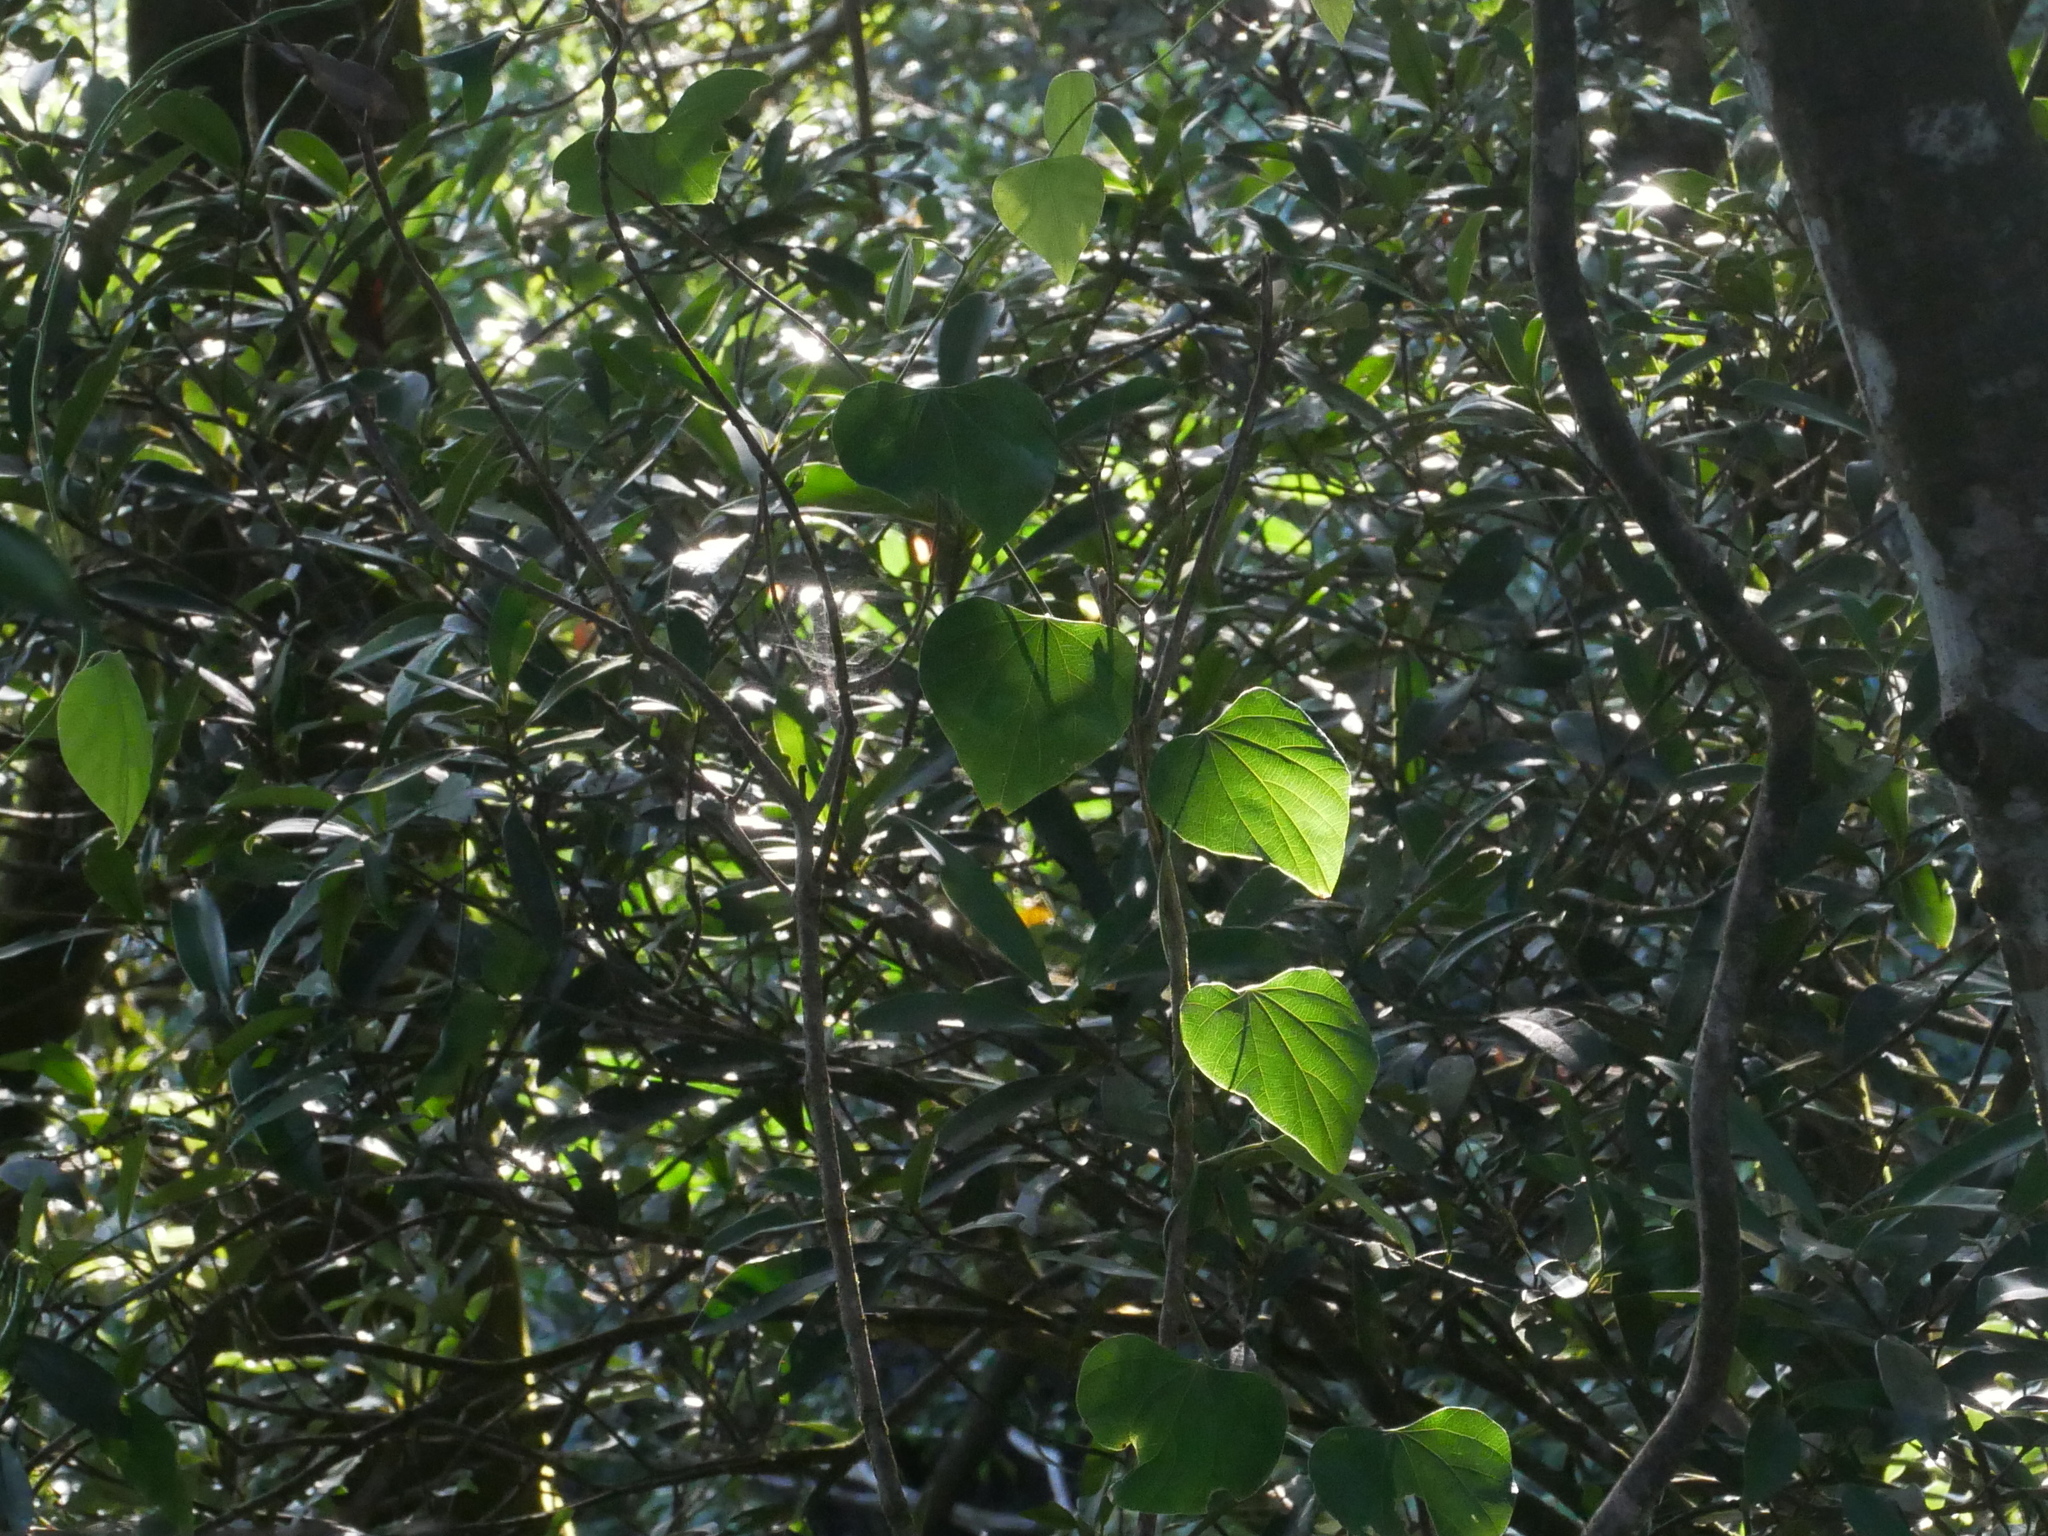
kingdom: Plantae
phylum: Tracheophyta
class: Magnoliopsida
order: Ranunculales
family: Menispermaceae
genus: Pericampylus
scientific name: Pericampylus glaucus
